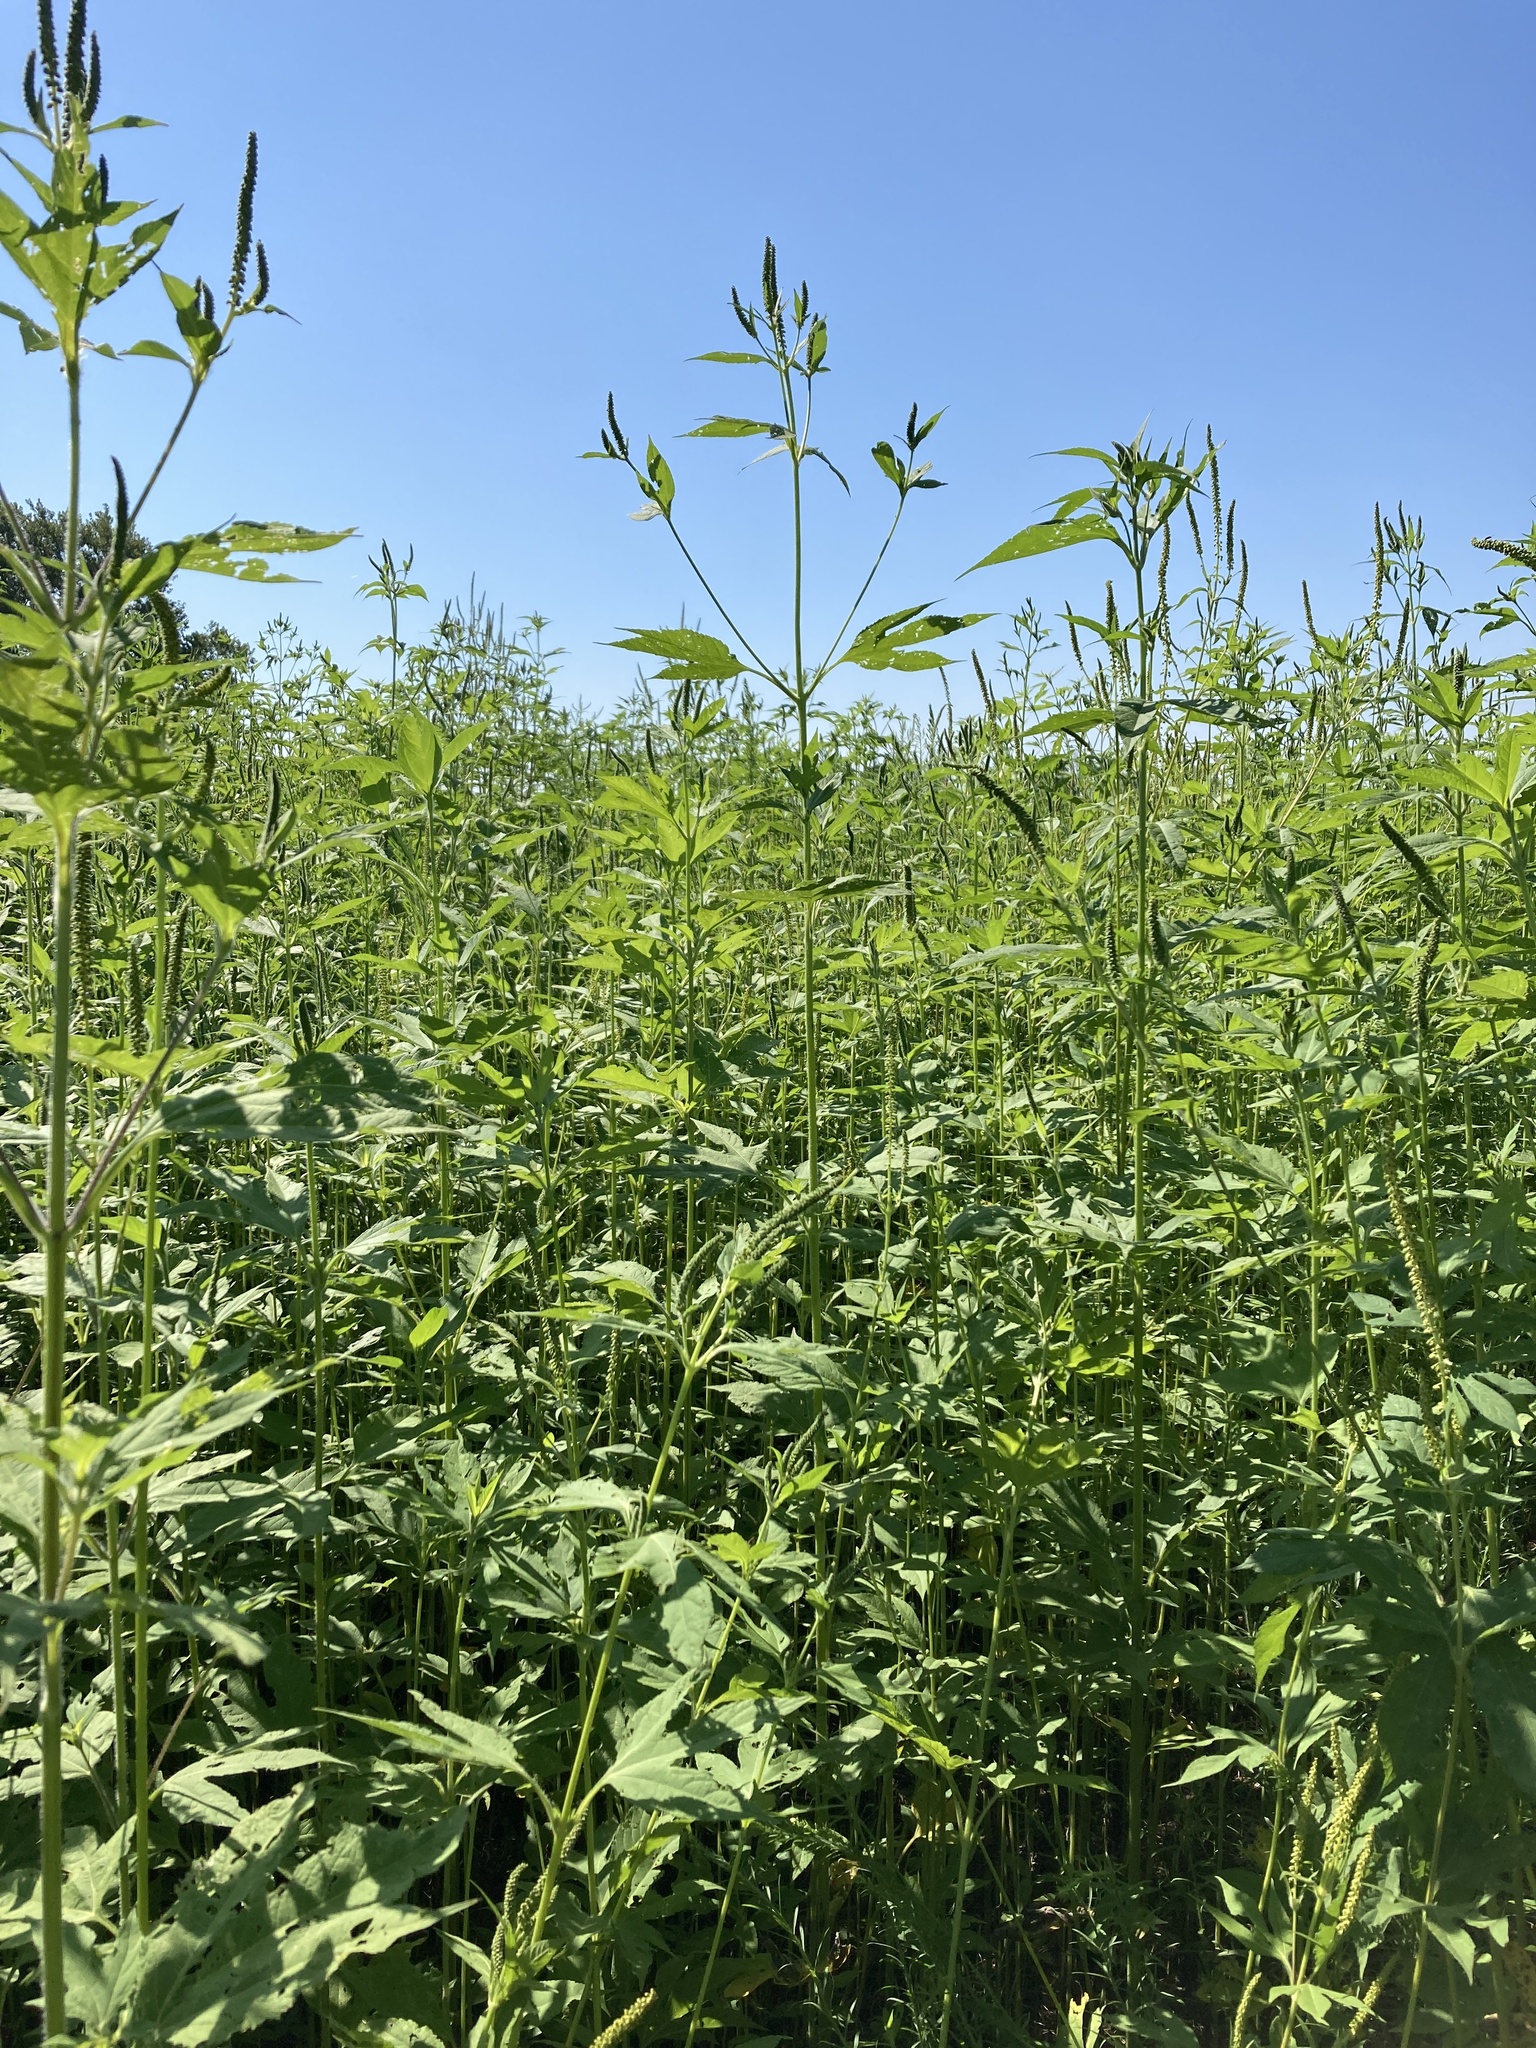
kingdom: Plantae
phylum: Tracheophyta
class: Magnoliopsida
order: Asterales
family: Asteraceae
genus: Ambrosia
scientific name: Ambrosia trifida
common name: Giant ragweed
